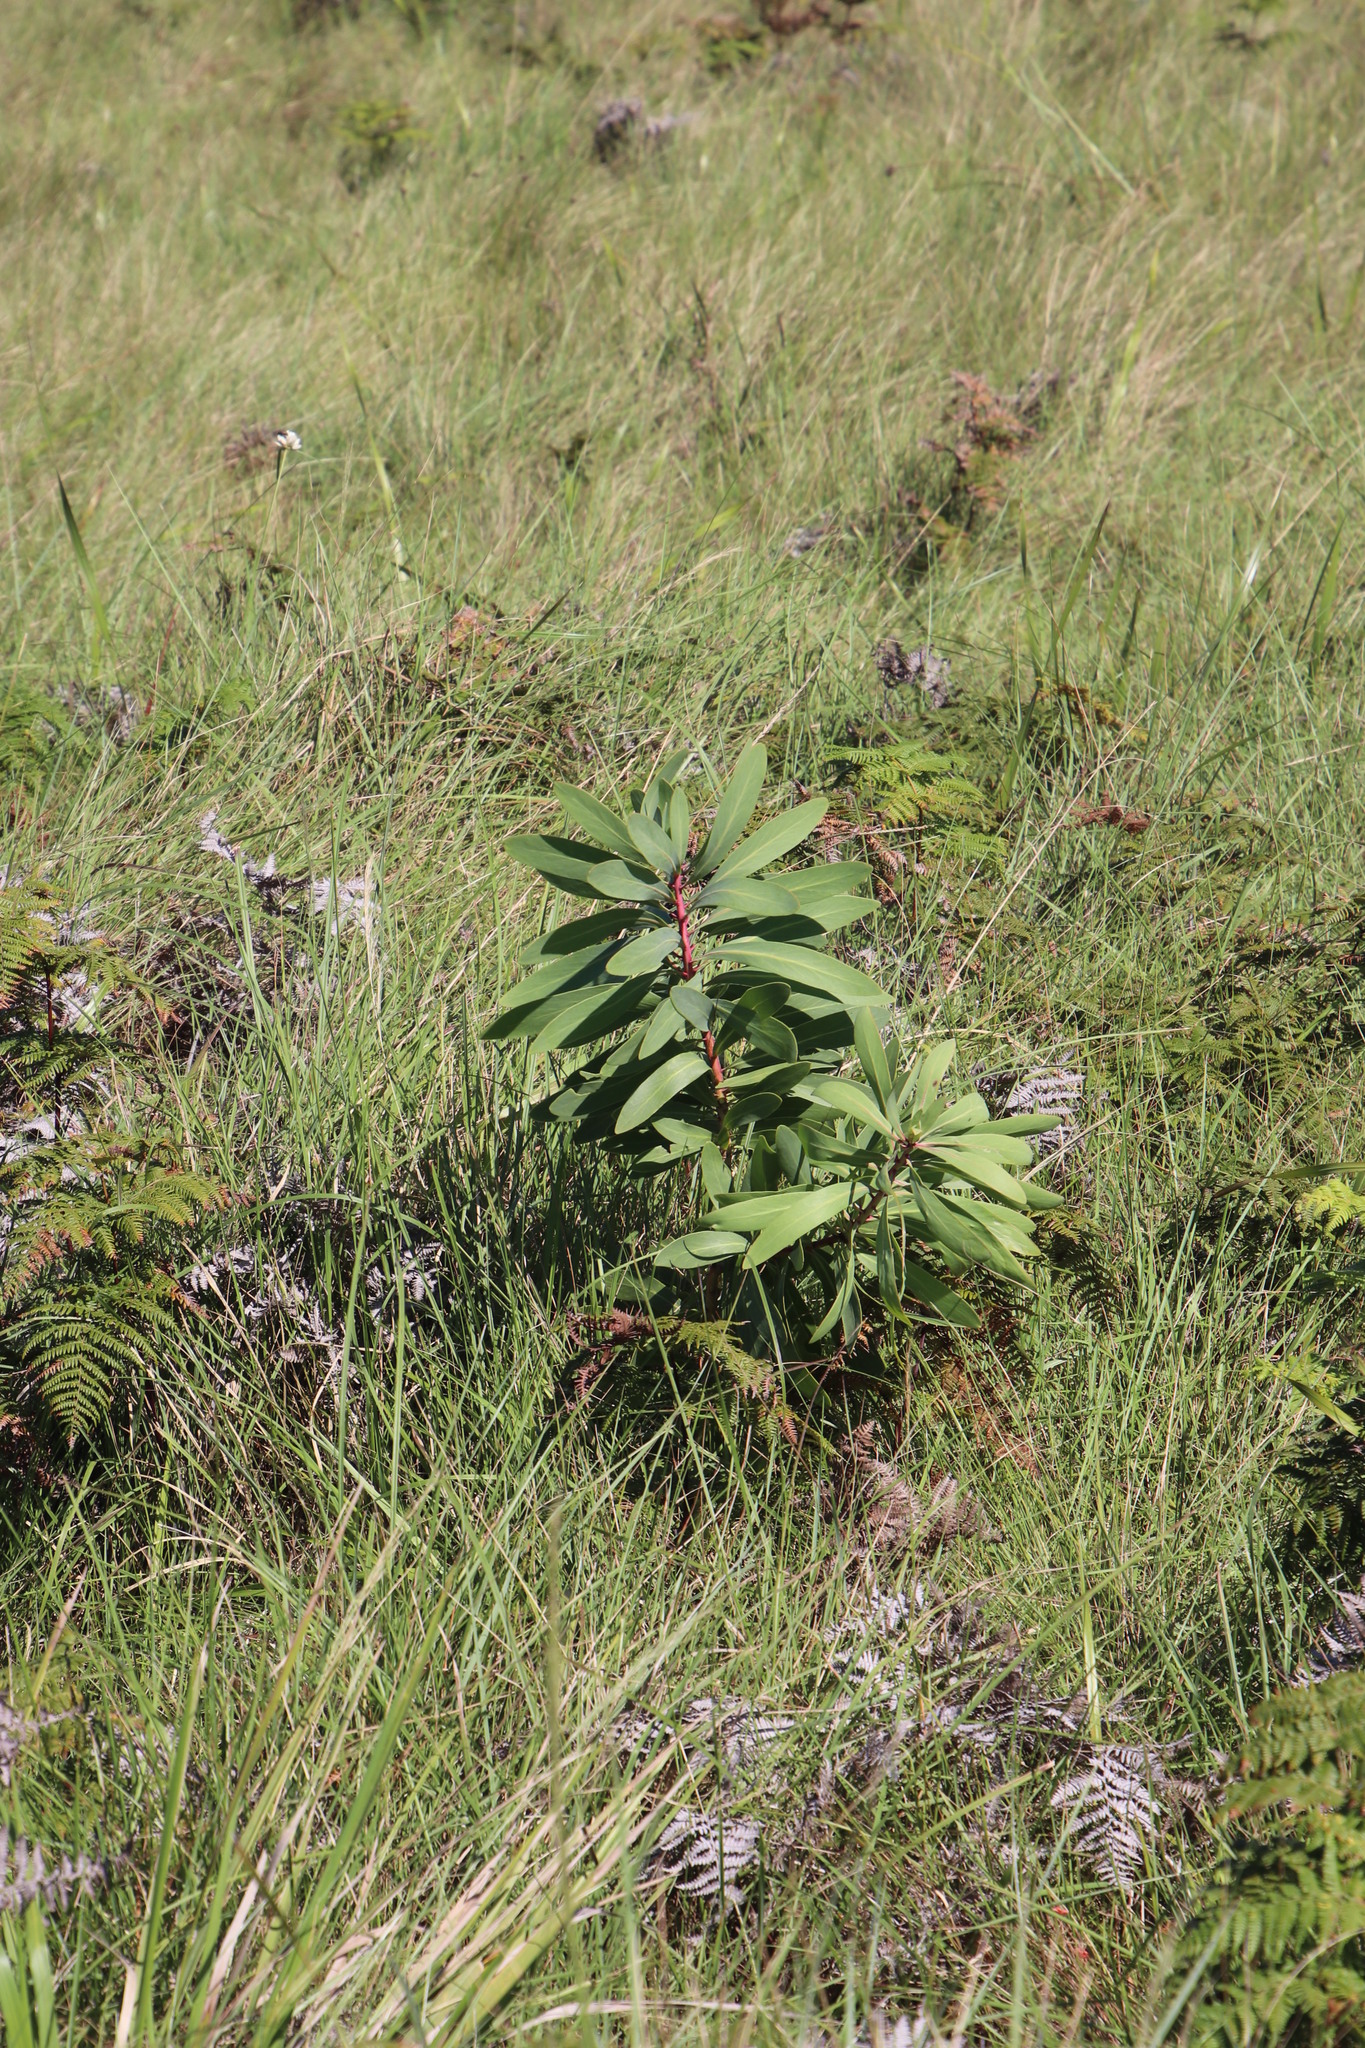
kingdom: Plantae
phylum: Tracheophyta
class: Magnoliopsida
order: Proteales
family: Proteaceae
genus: Protea
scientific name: Protea caffra
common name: Common sugarbush
